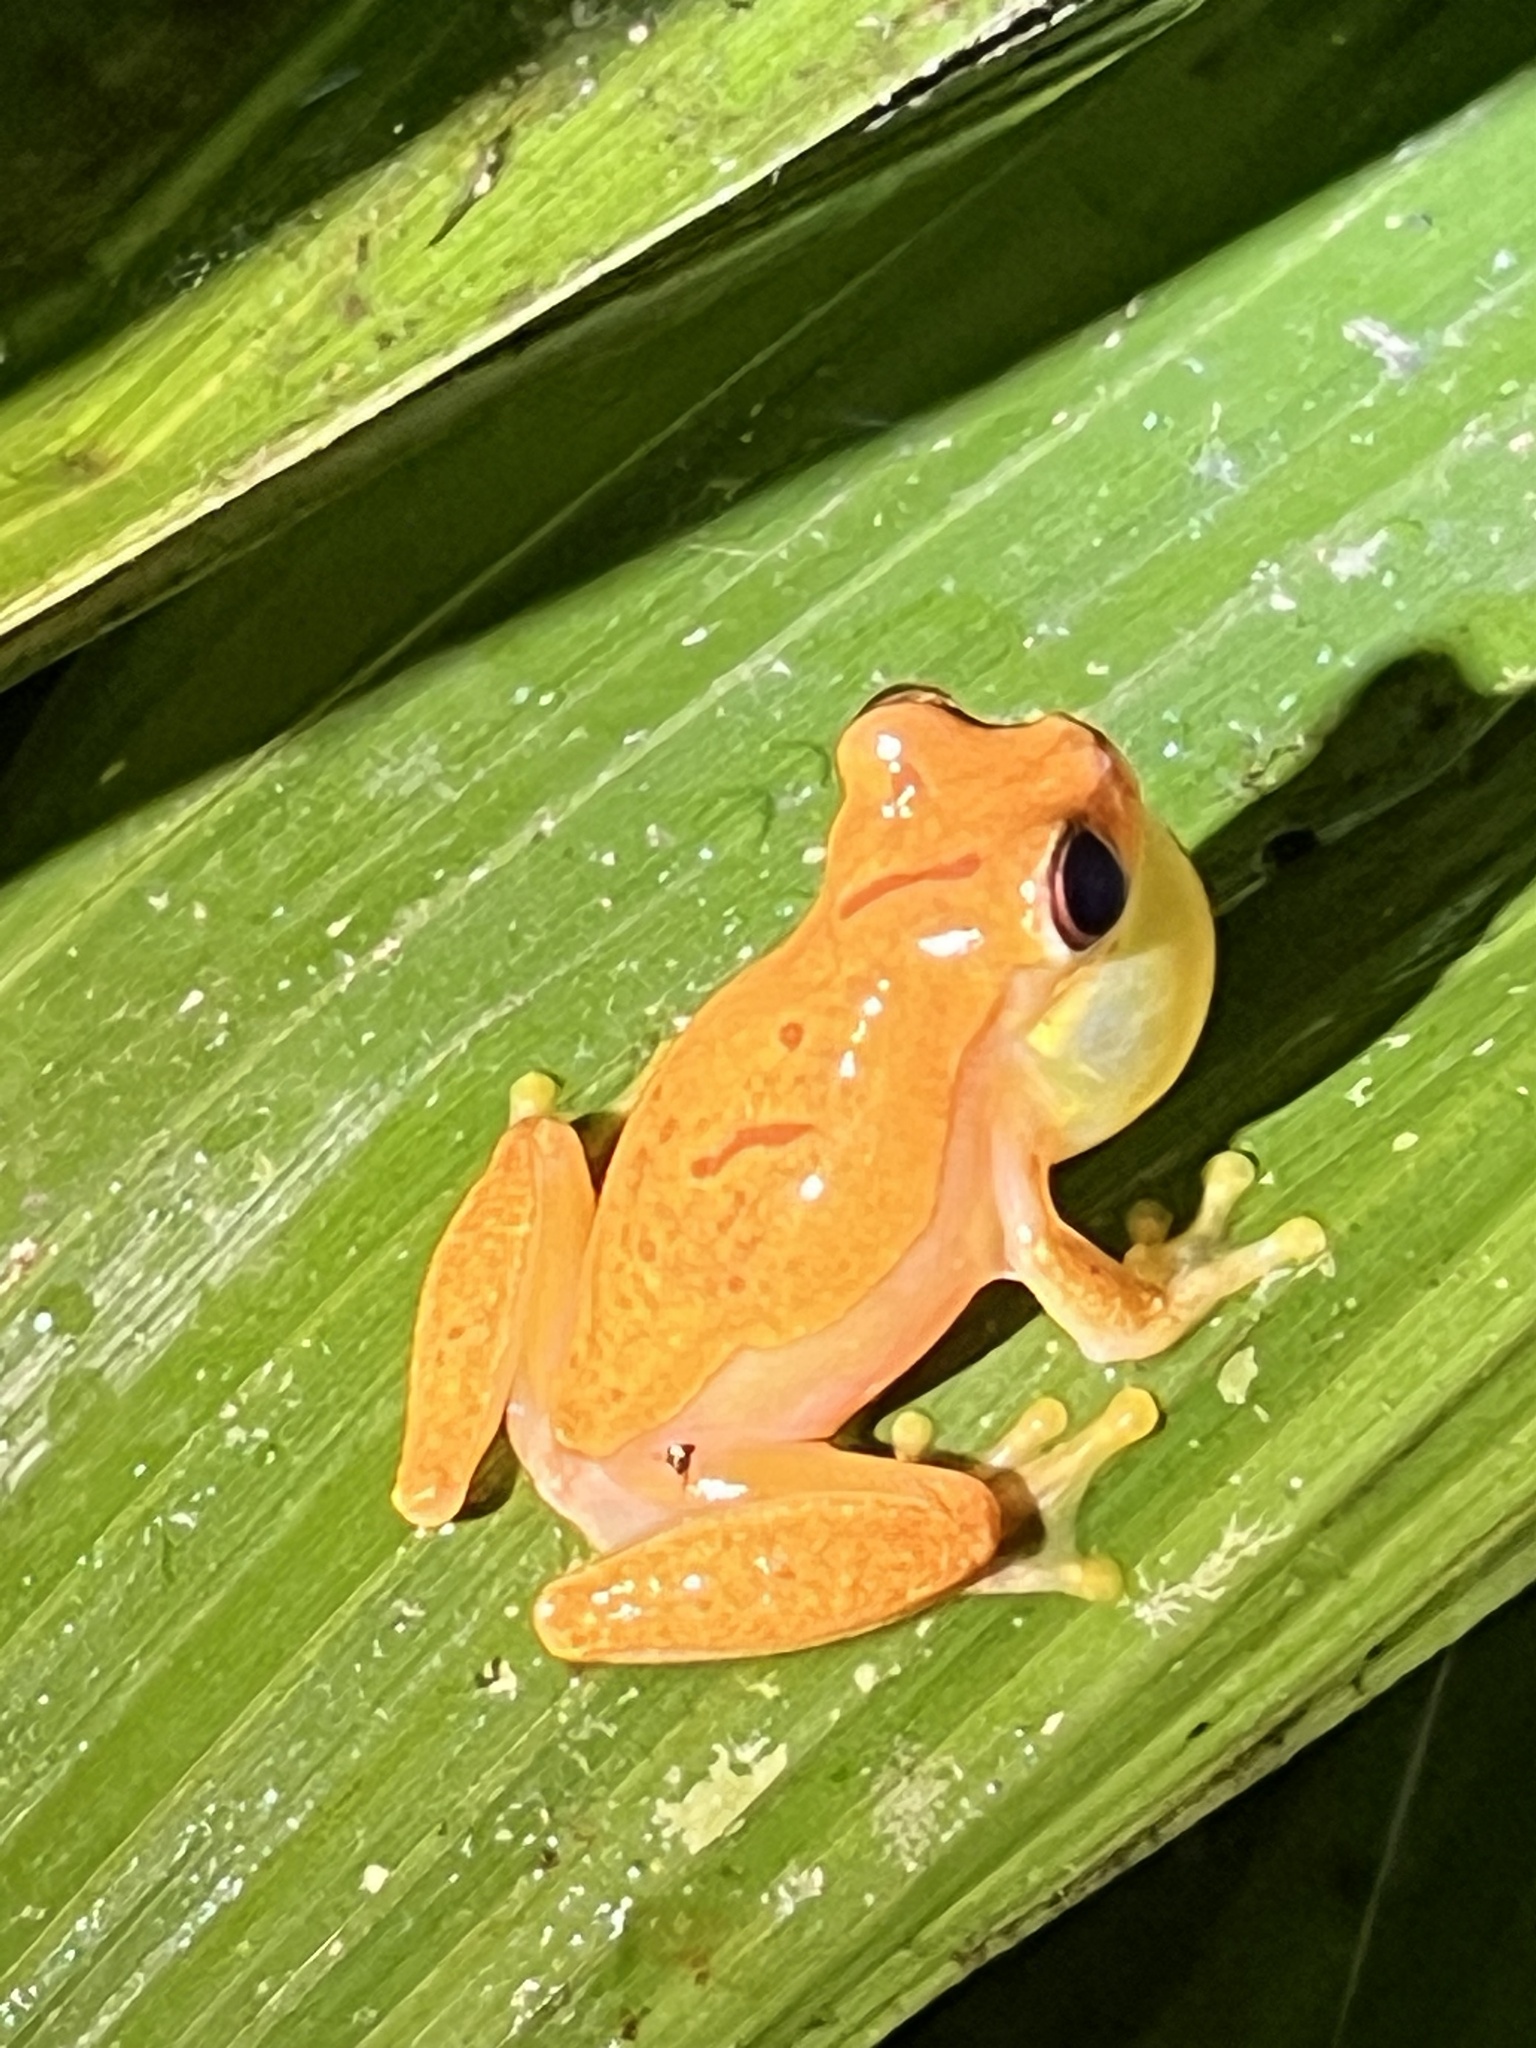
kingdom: Animalia
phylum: Chordata
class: Amphibia
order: Anura
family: Hylidae
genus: Dendropsophus
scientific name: Dendropsophus ebraccatus
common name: Hourglass treefrog
